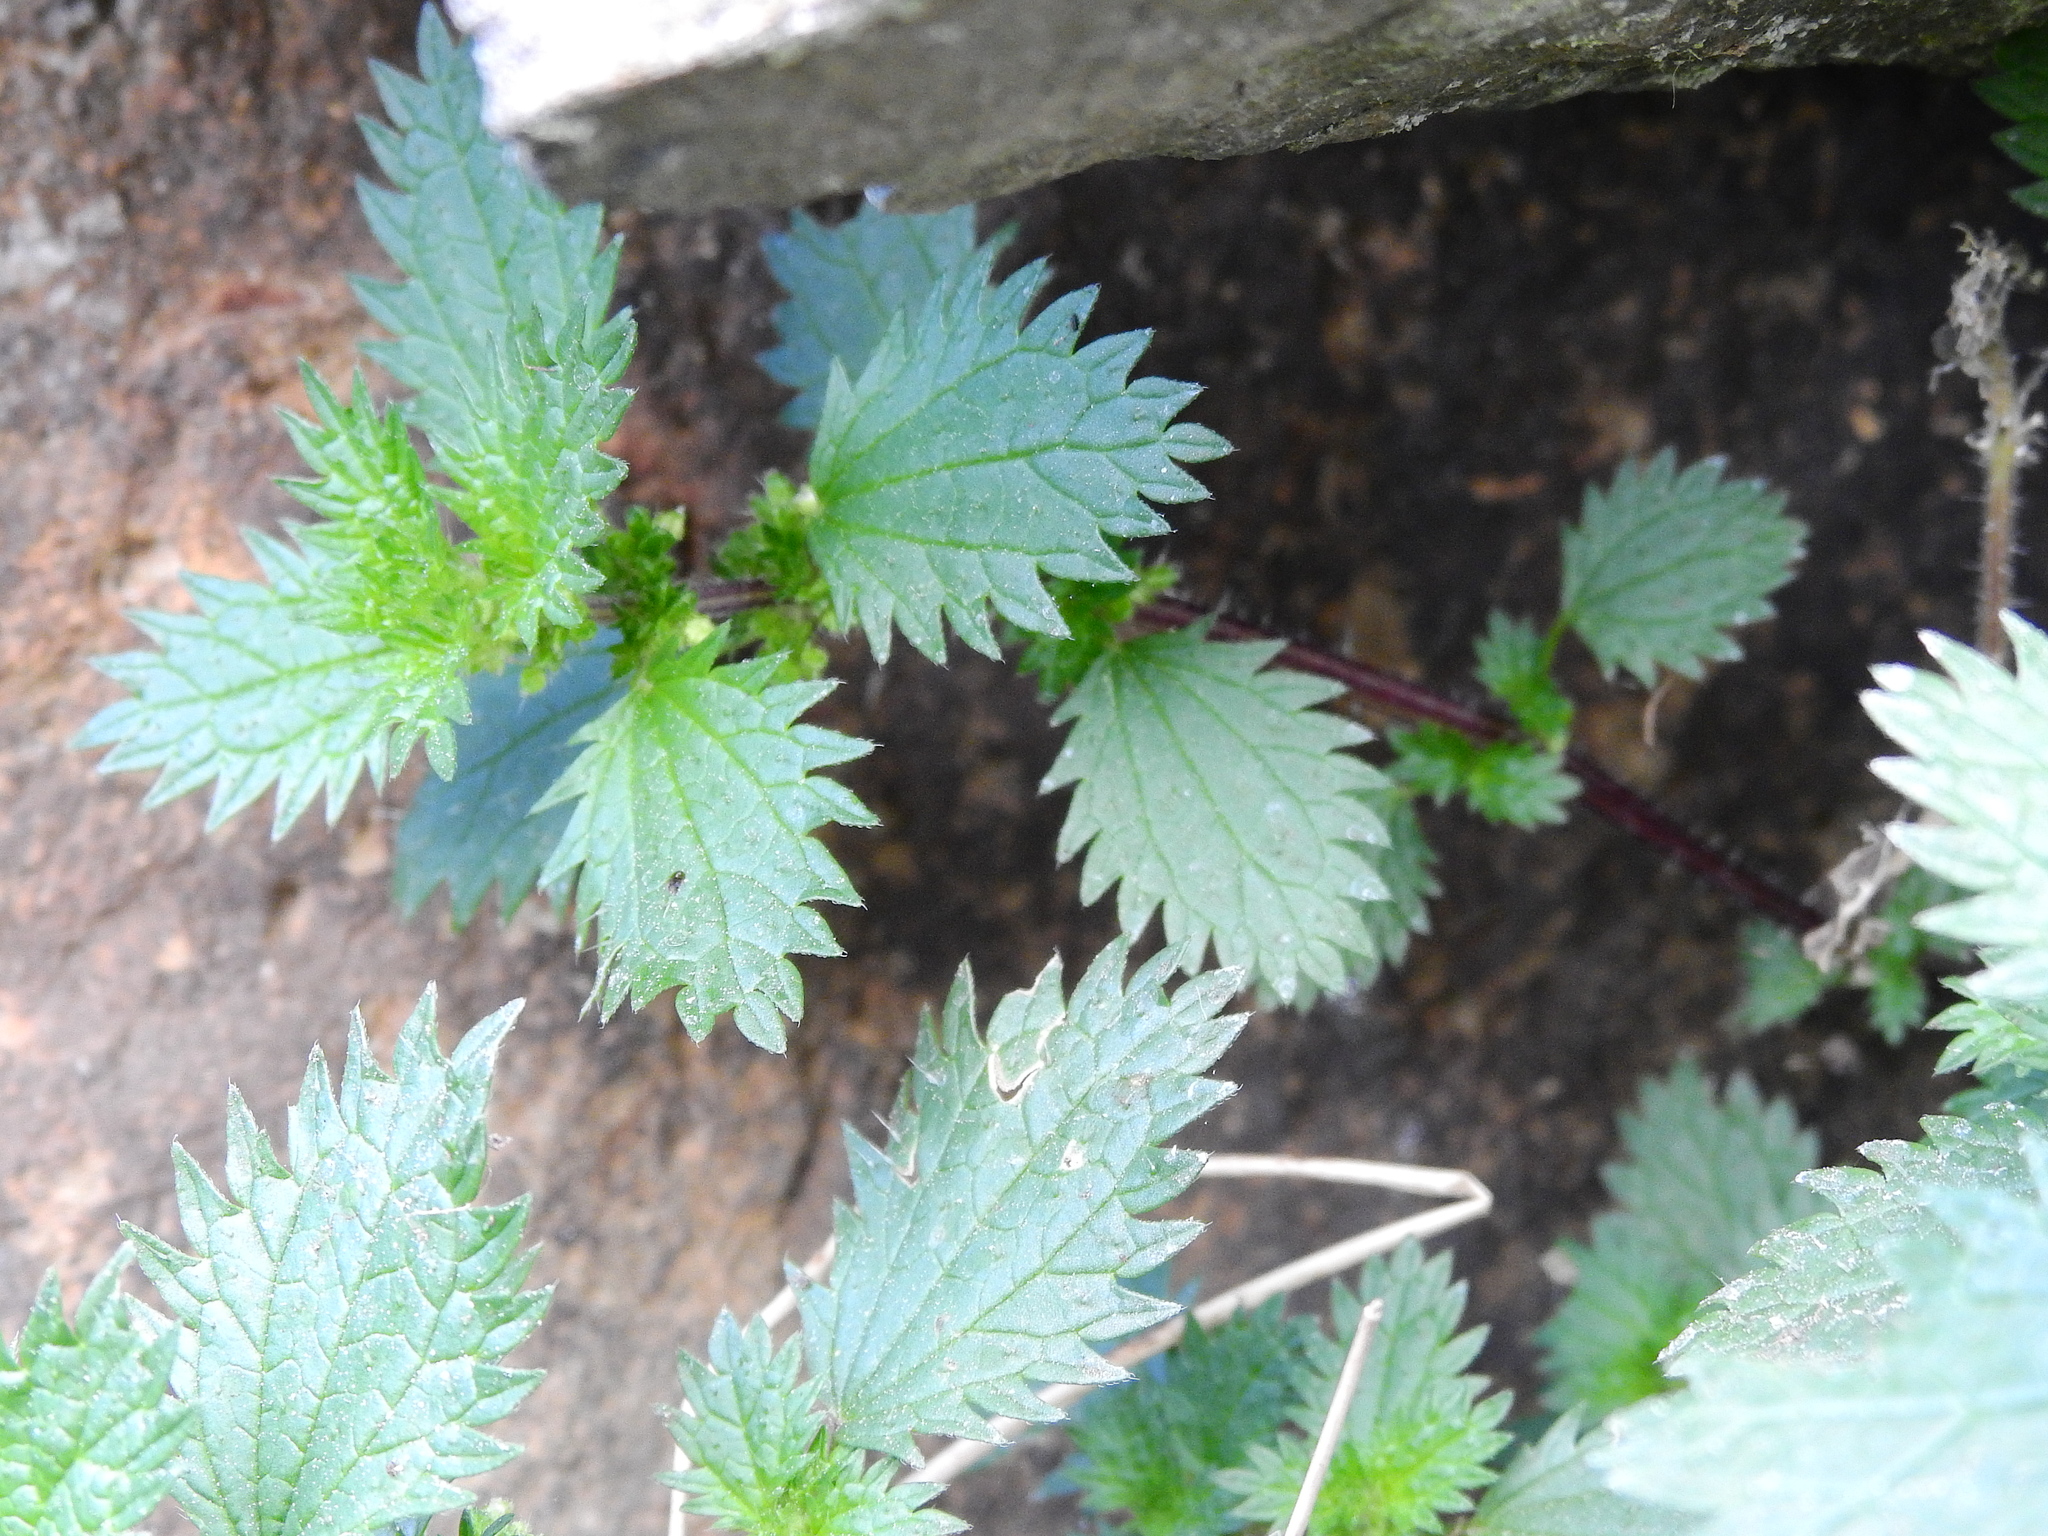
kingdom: Plantae
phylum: Tracheophyta
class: Magnoliopsida
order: Rosales
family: Urticaceae
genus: Urtica
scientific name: Urtica urens
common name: Dwarf nettle
